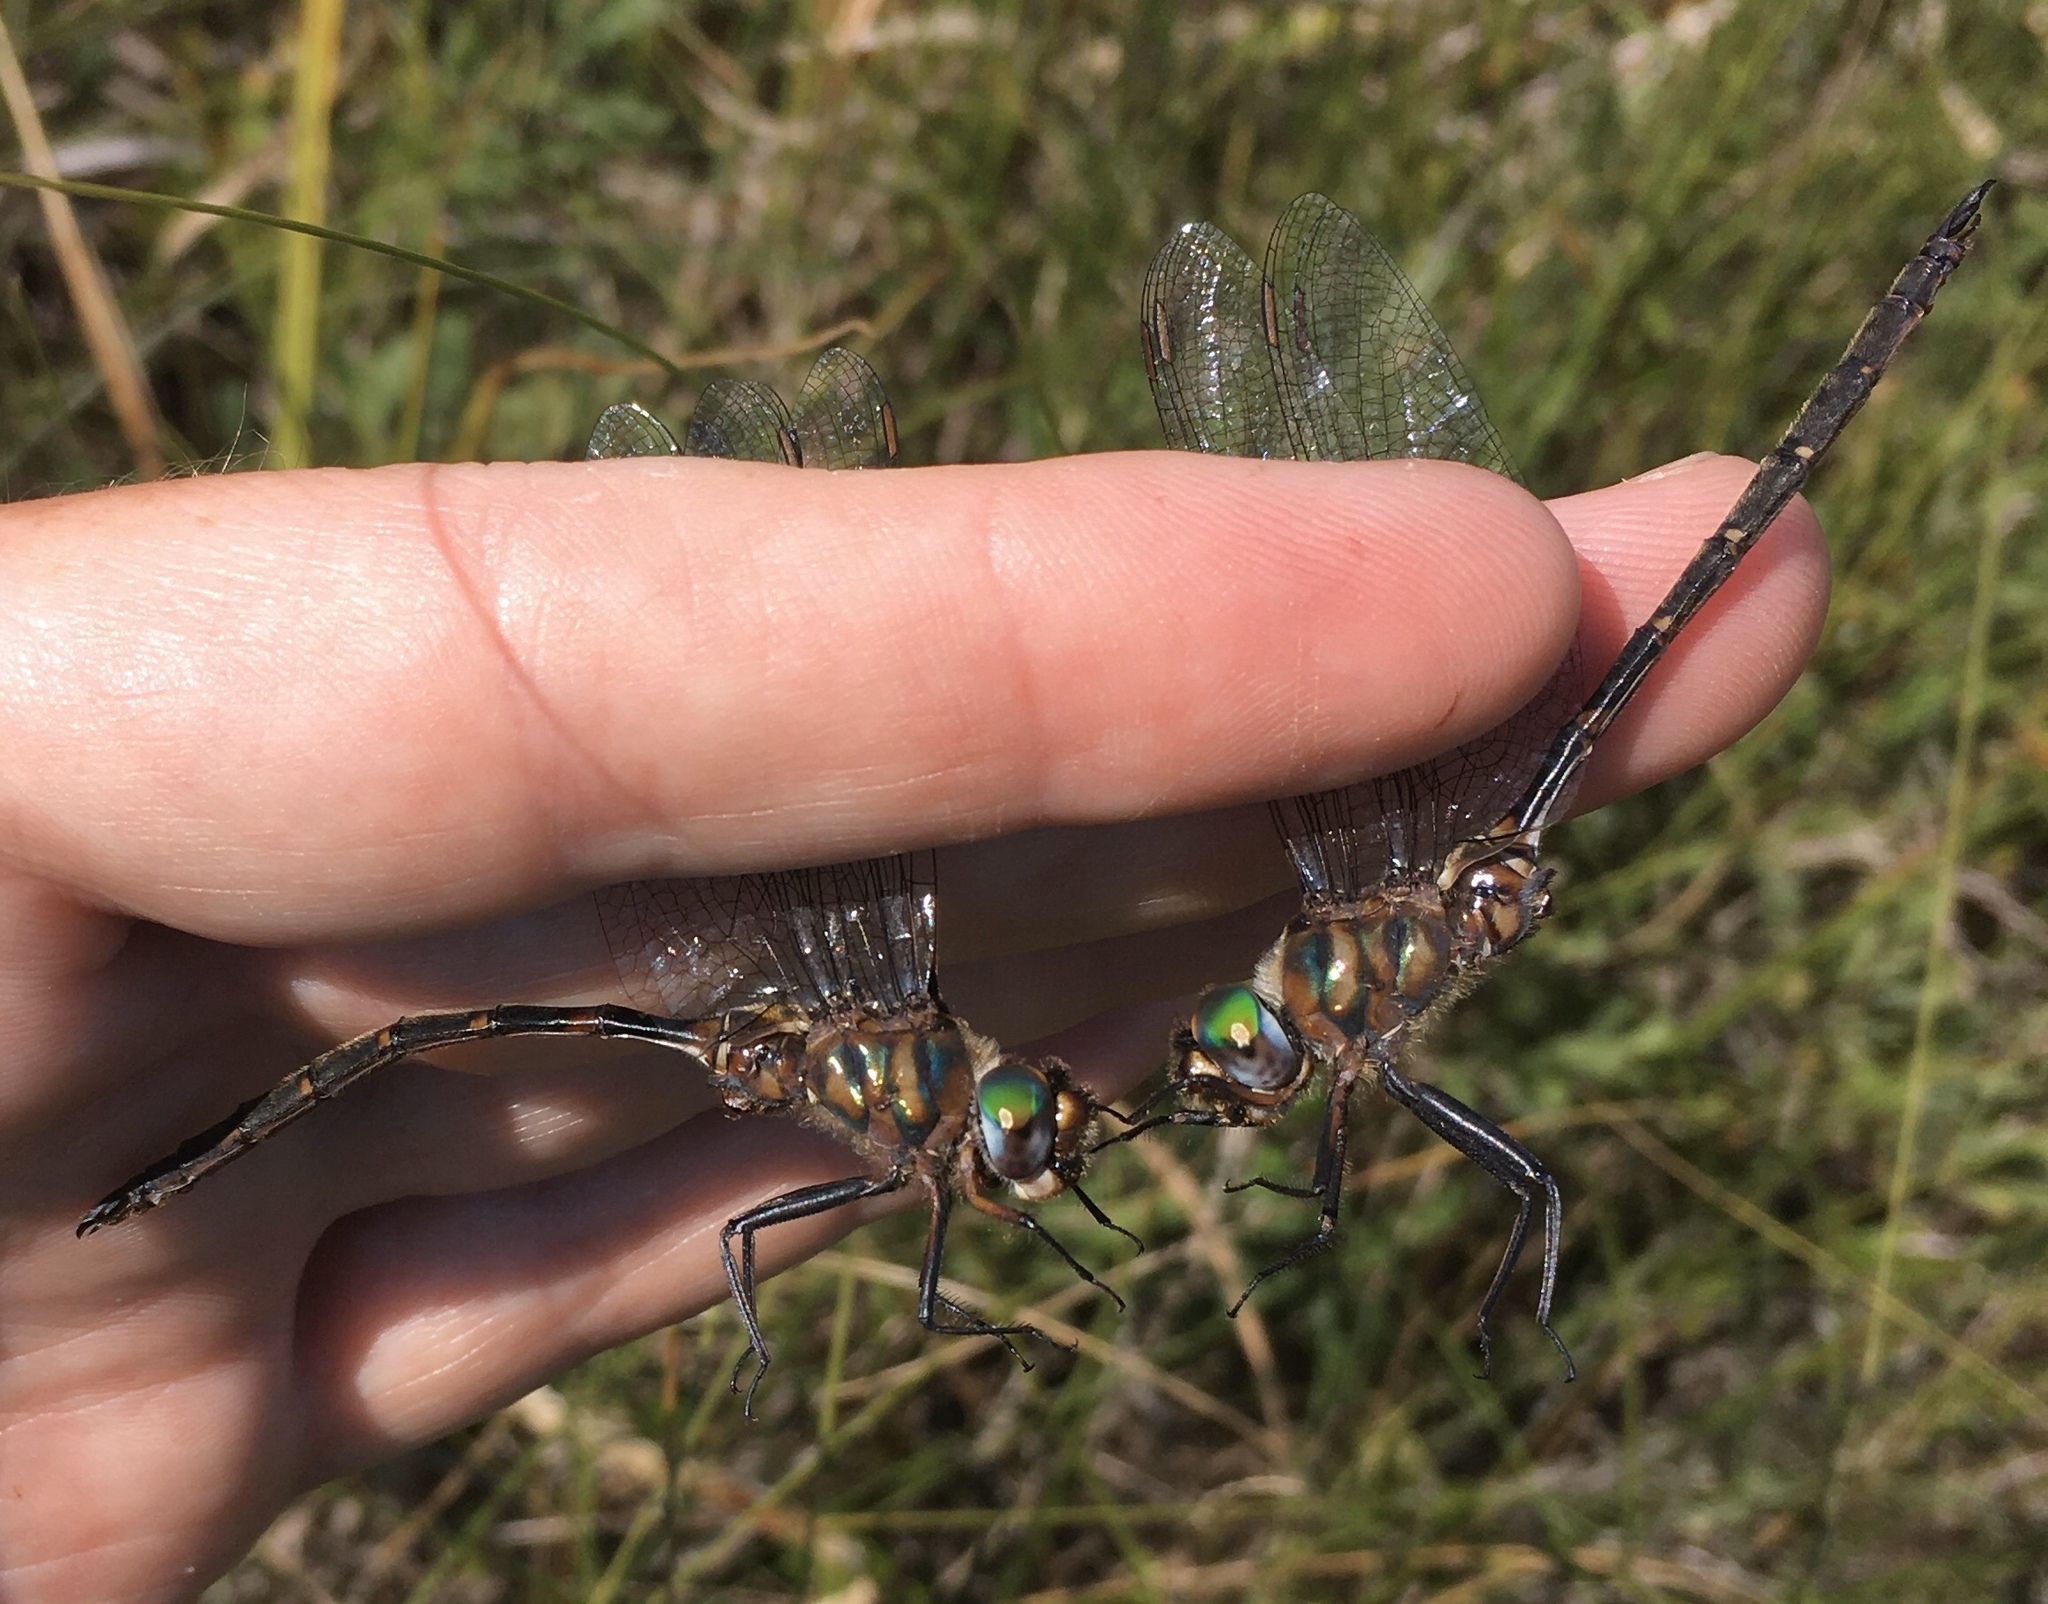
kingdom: Animalia
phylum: Arthropoda
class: Insecta
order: Odonata
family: Corduliidae
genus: Somatochlora
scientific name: Somatochlora incurvata
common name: Incurvate emerald
